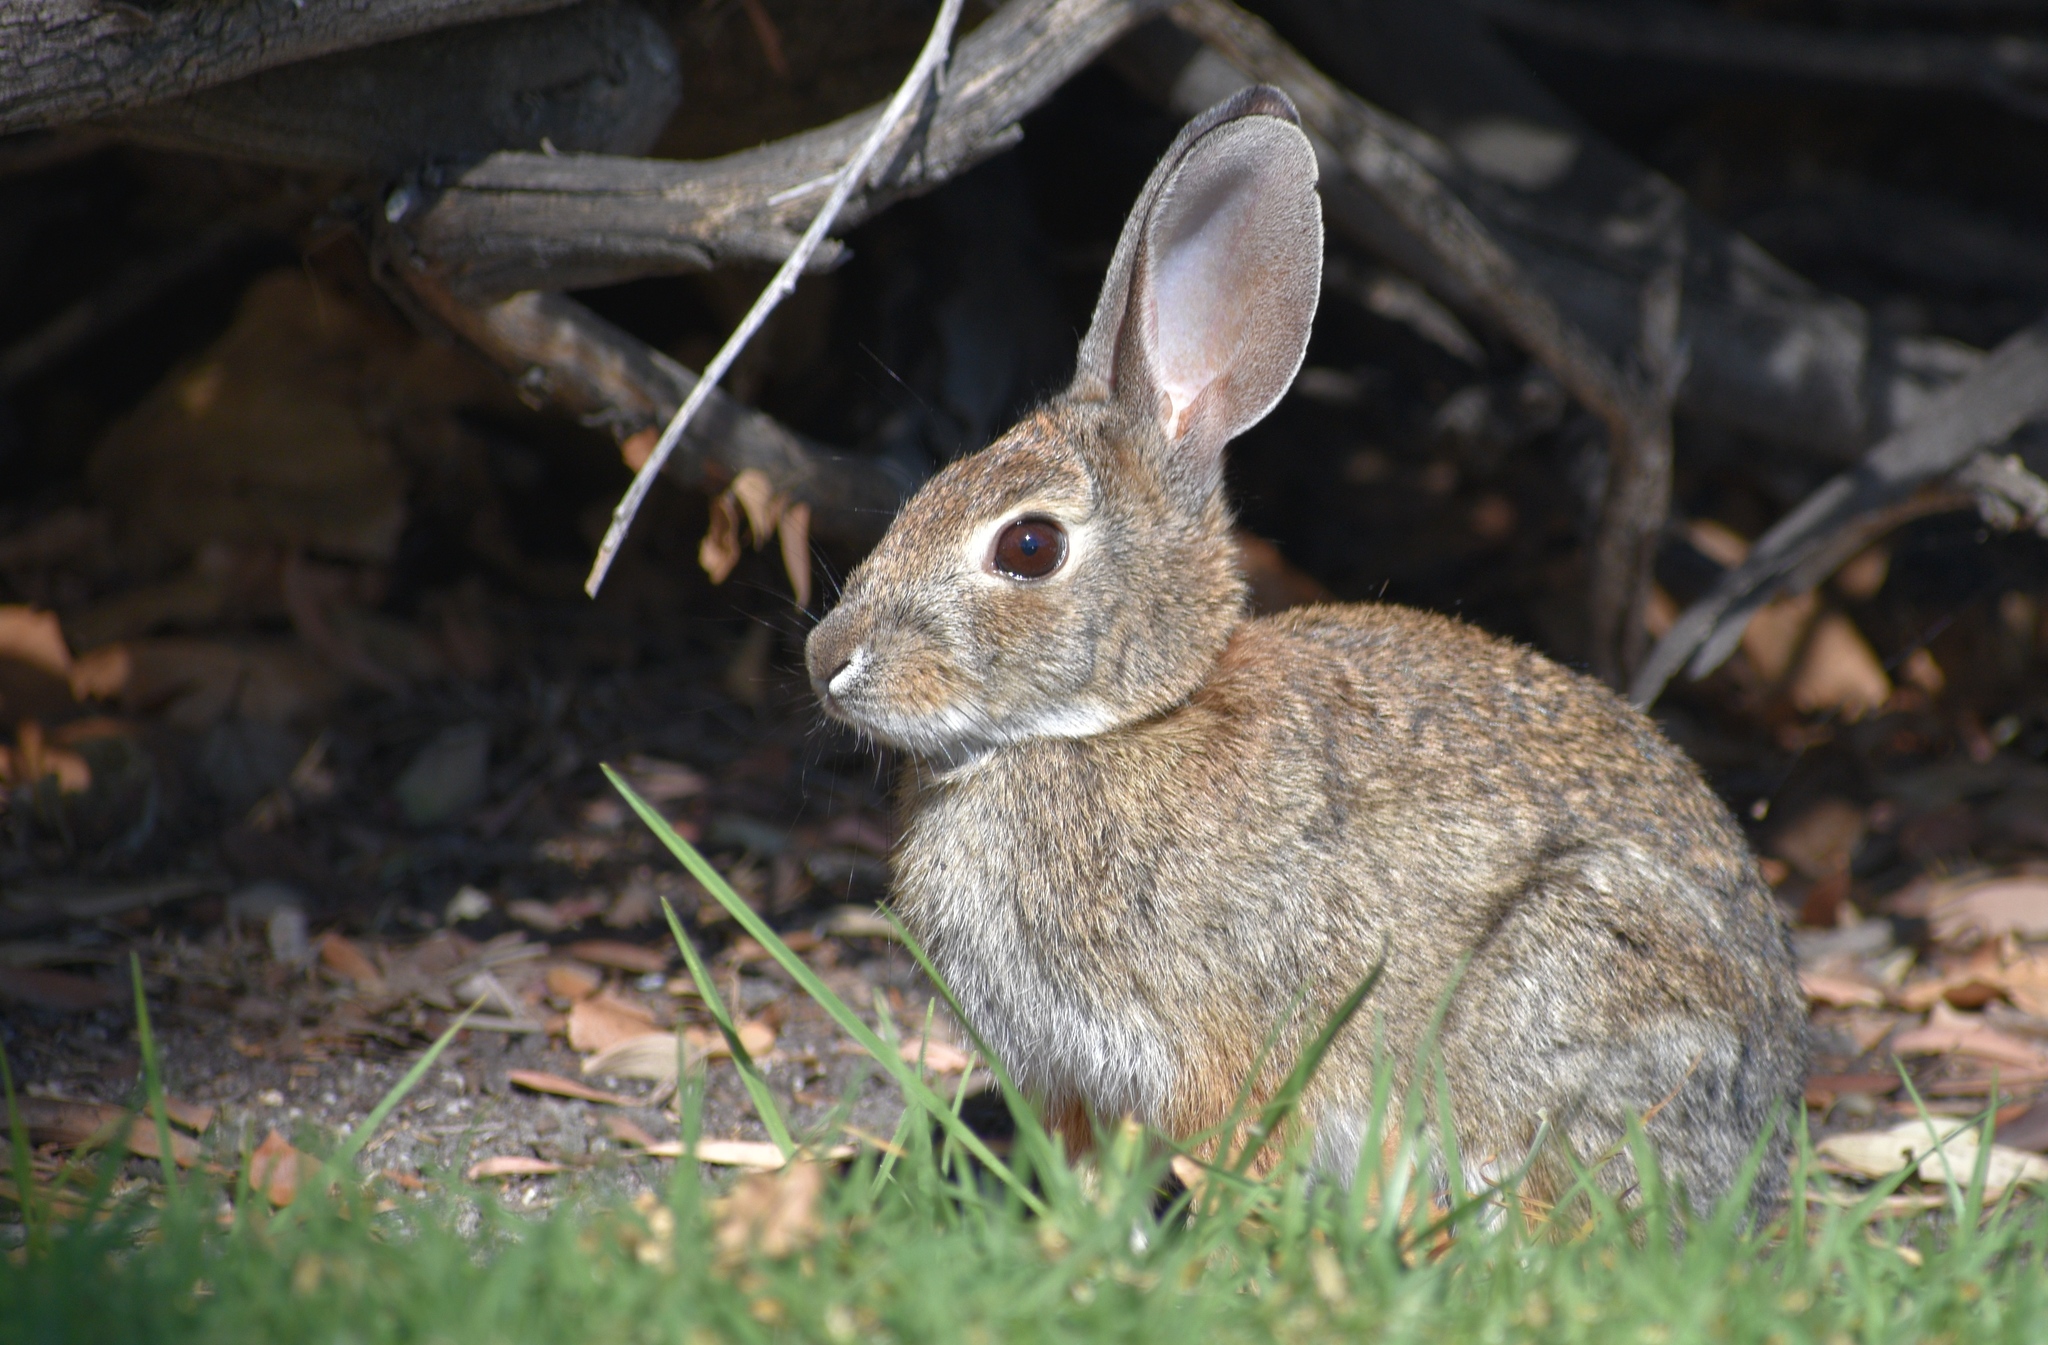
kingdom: Animalia
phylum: Chordata
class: Mammalia
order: Lagomorpha
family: Leporidae
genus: Sylvilagus
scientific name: Sylvilagus audubonii
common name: Desert cottontail
